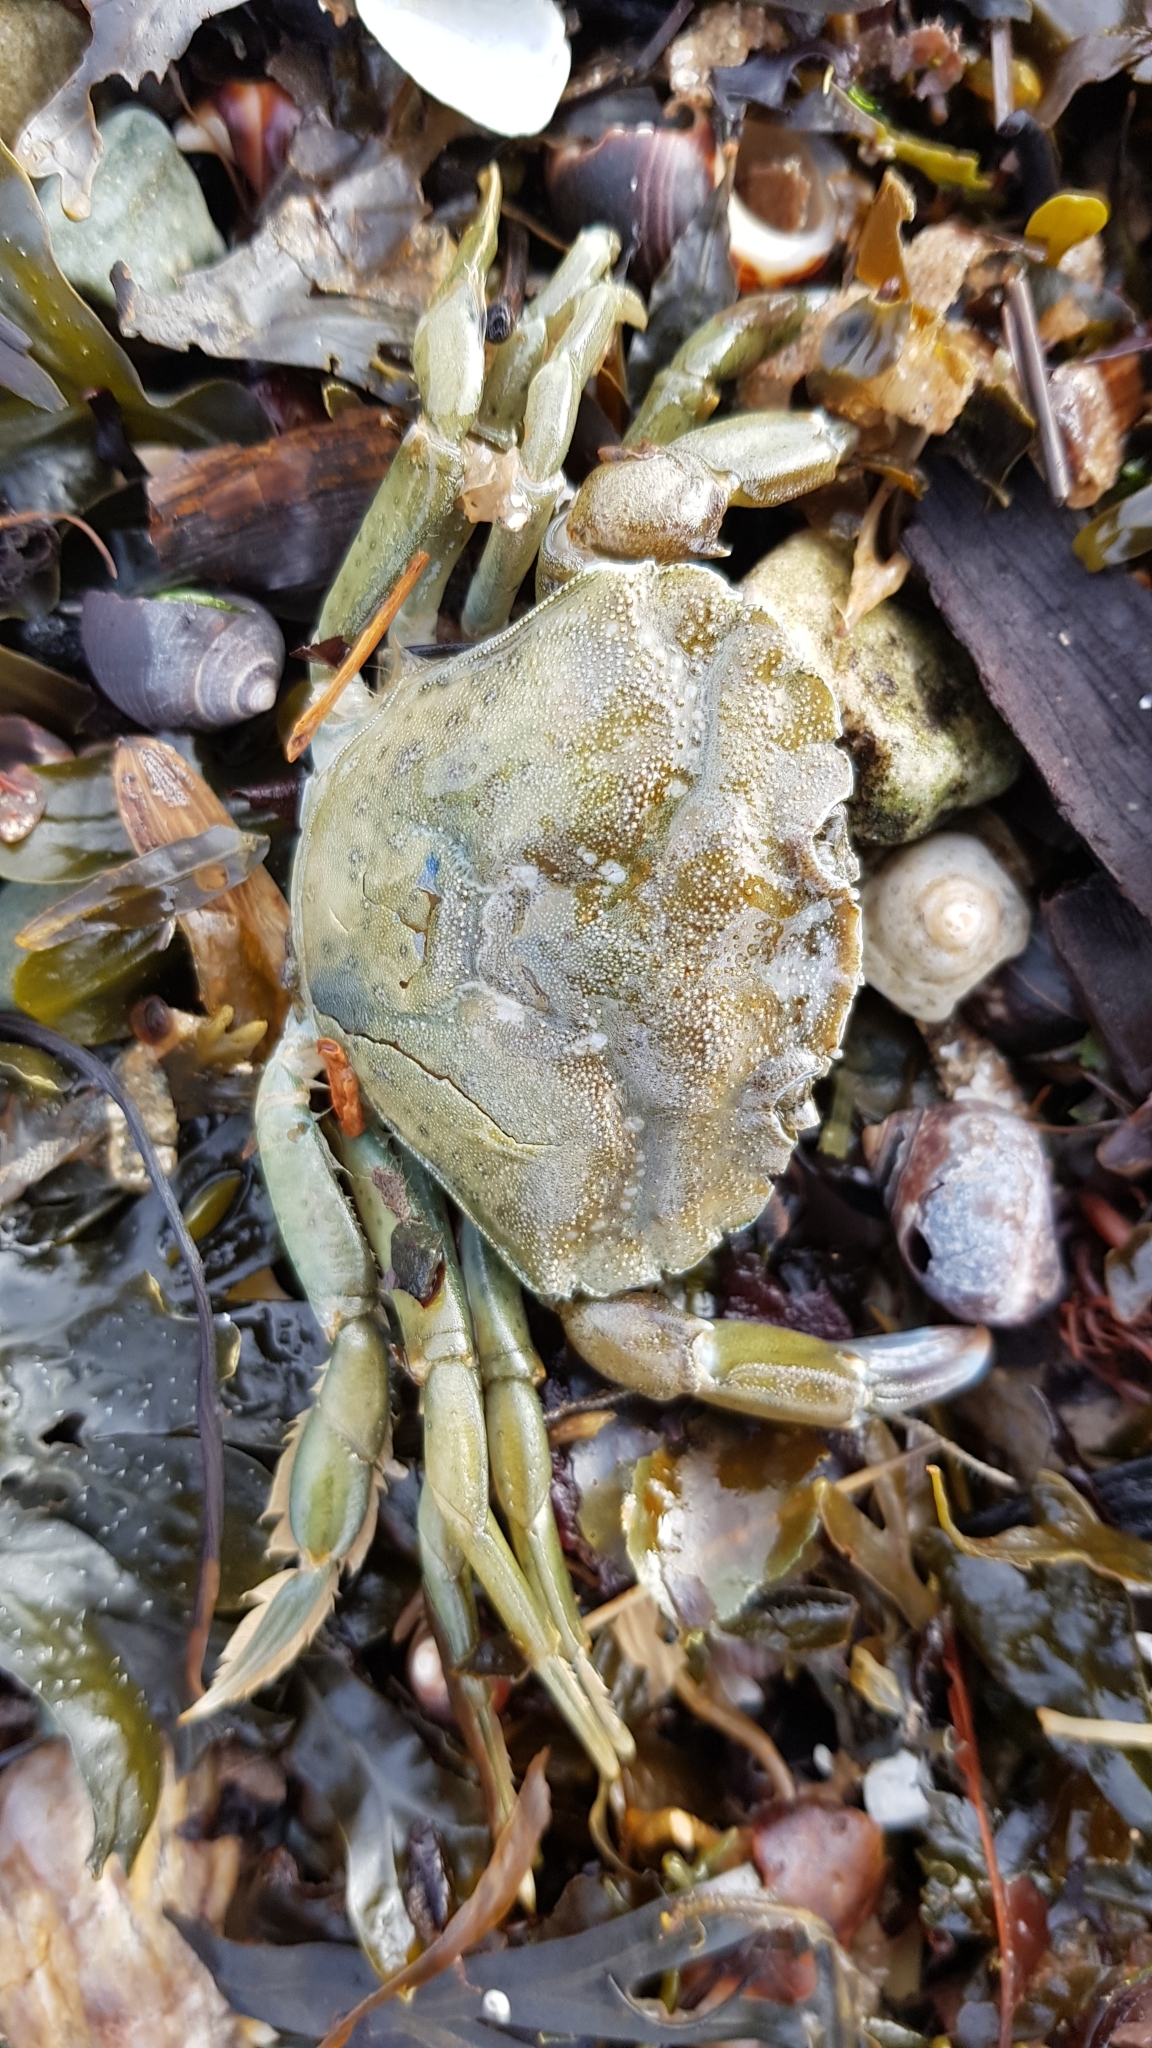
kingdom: Animalia
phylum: Arthropoda
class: Malacostraca
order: Decapoda
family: Carcinidae
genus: Carcinus
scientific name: Carcinus maenas
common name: European green crab
